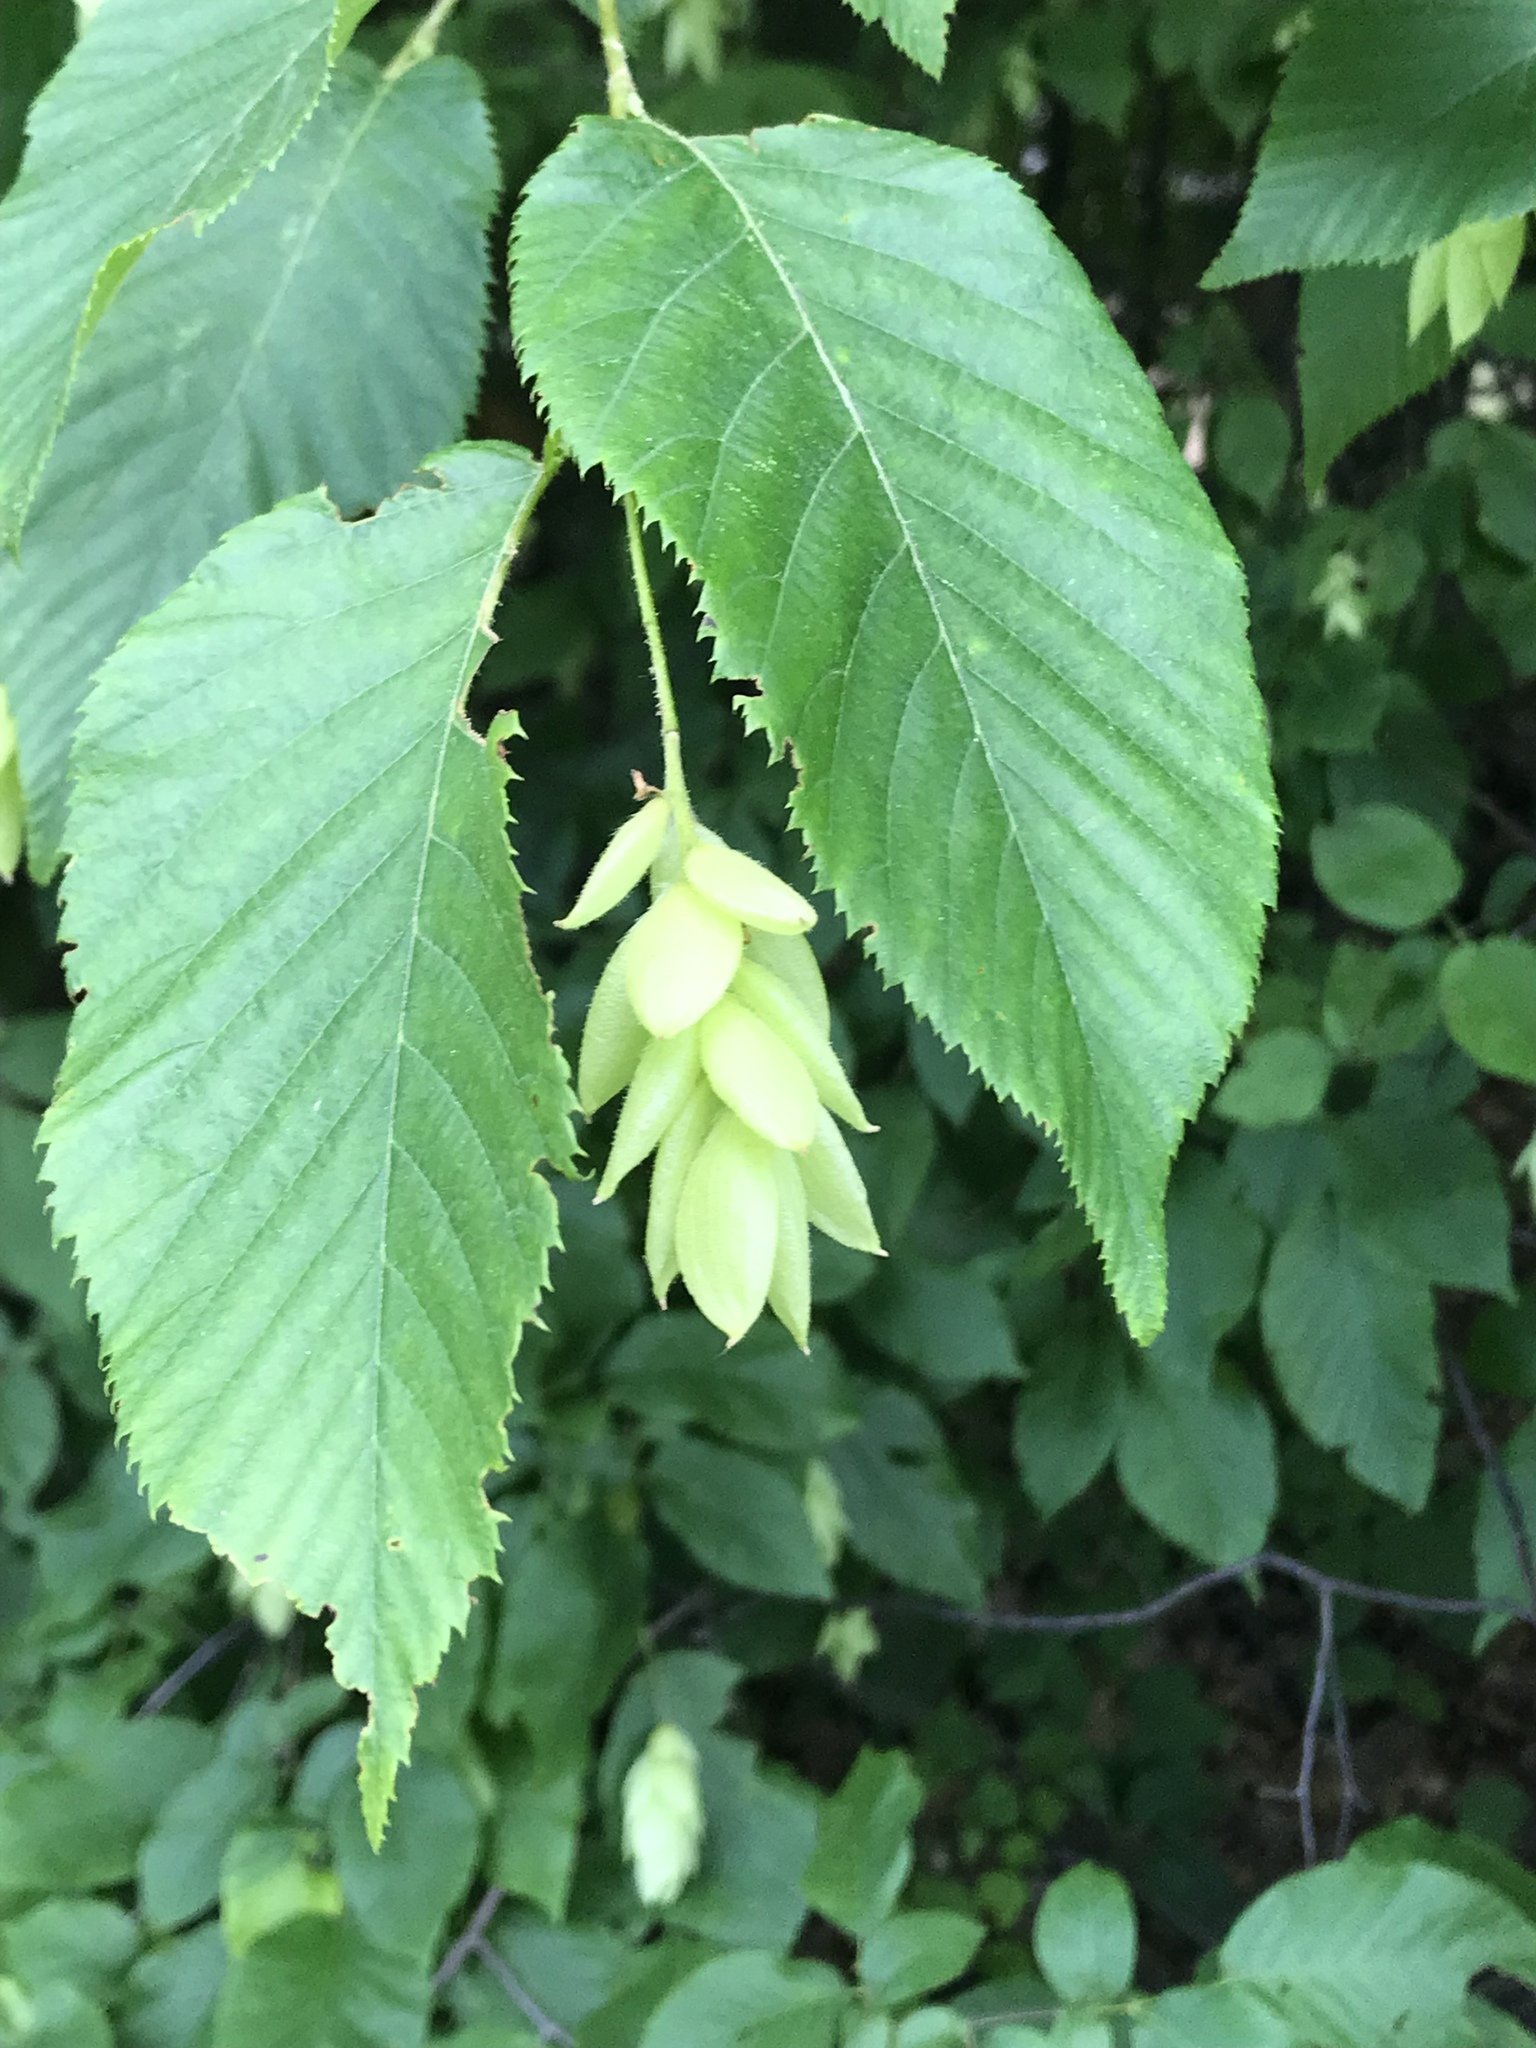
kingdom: Plantae
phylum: Tracheophyta
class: Magnoliopsida
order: Fagales
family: Betulaceae
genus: Ostrya
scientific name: Ostrya virginiana
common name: Ironwood
